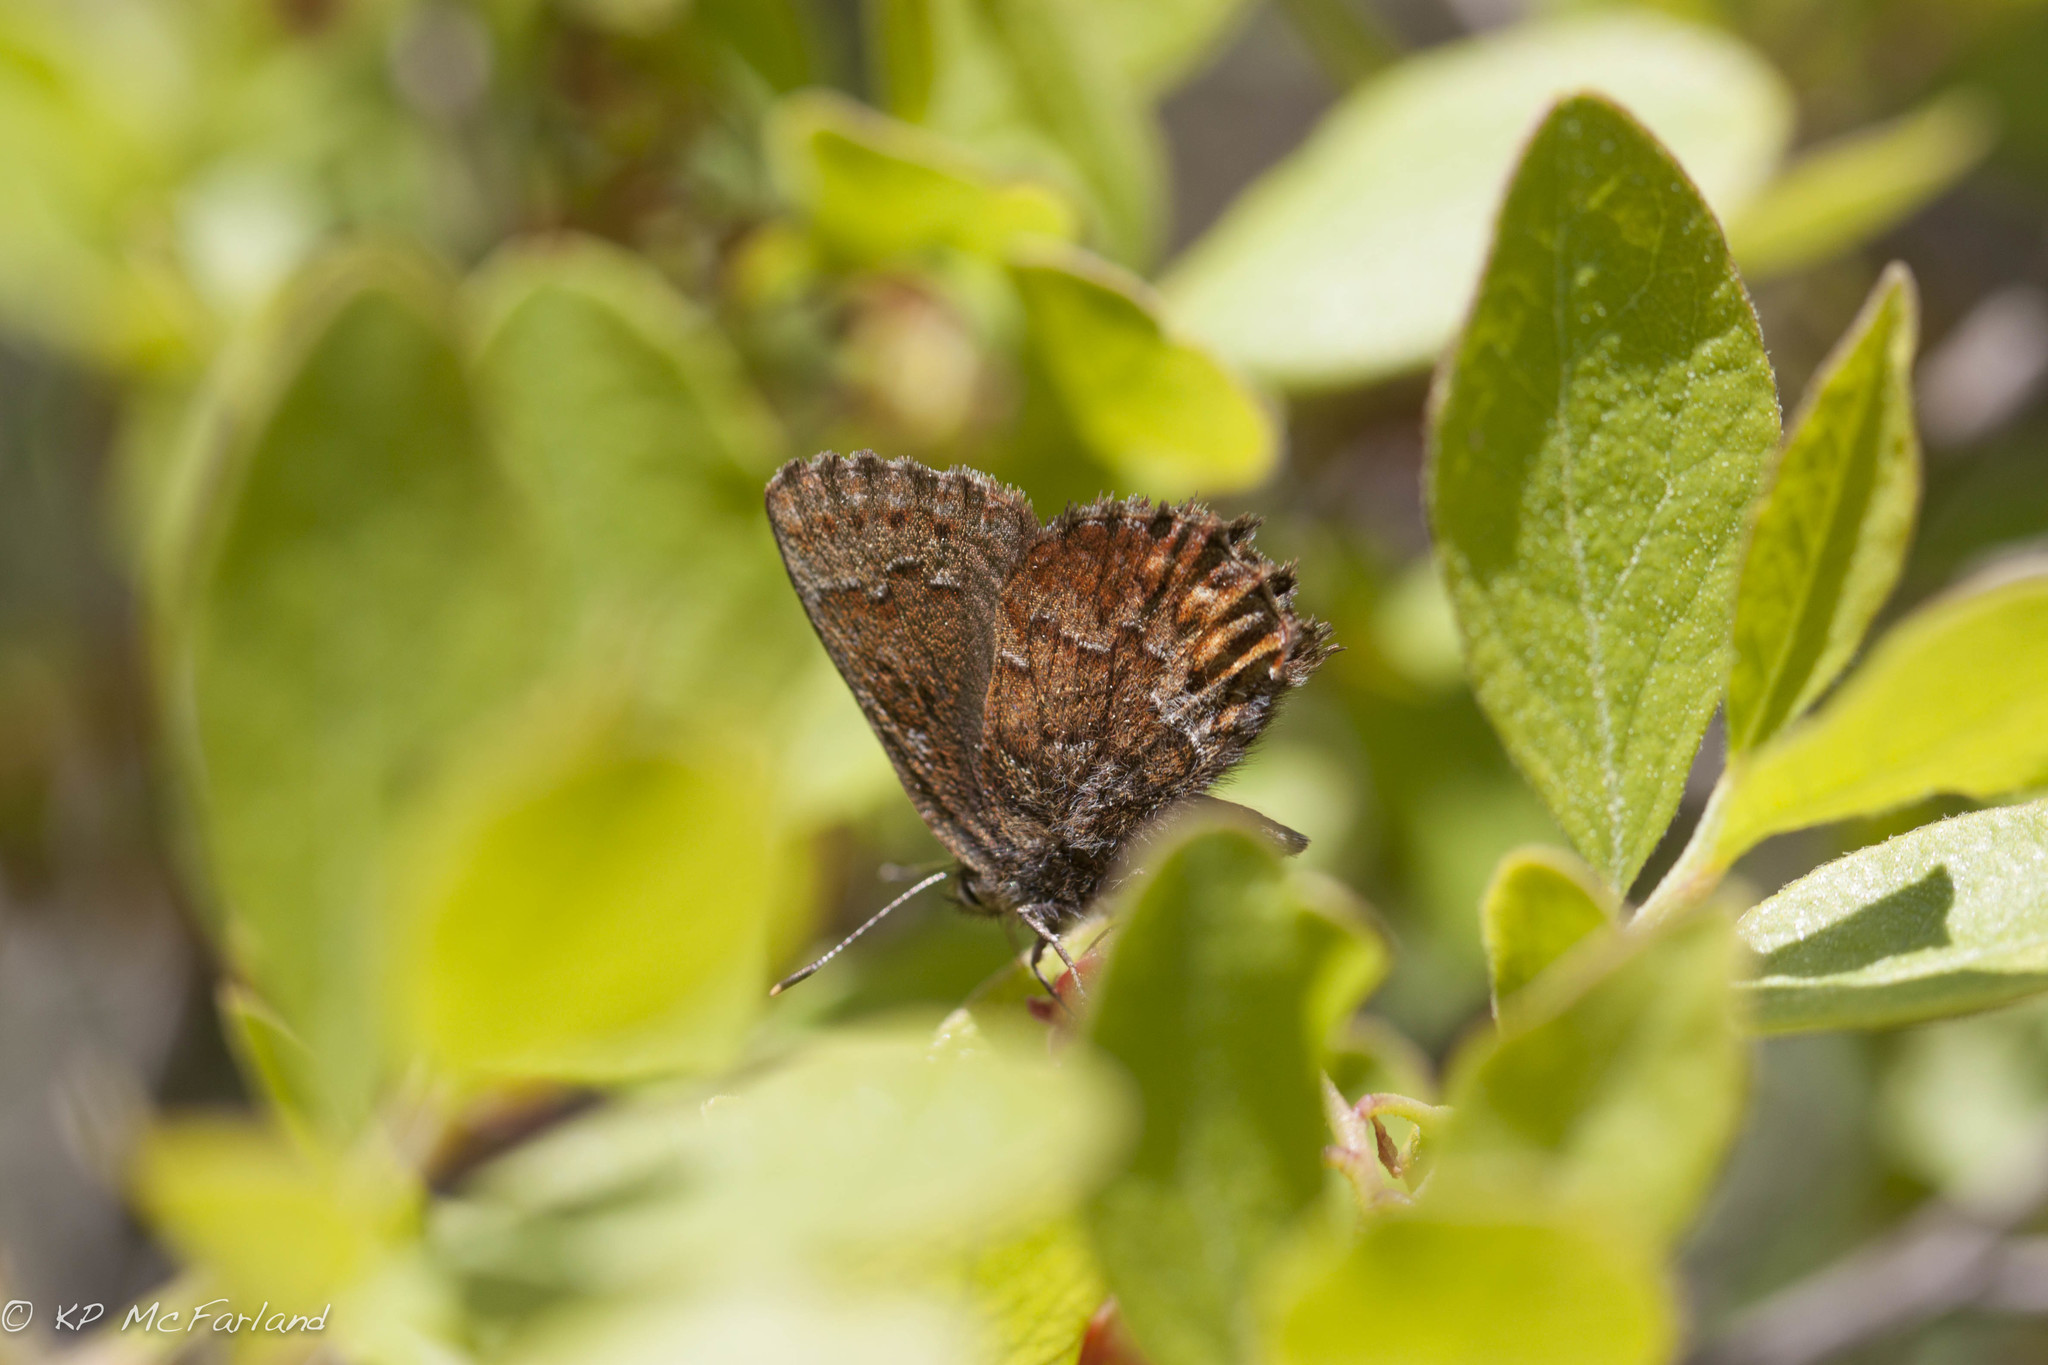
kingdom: Animalia
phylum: Arthropoda
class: Insecta
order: Lepidoptera
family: Lycaenidae
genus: Incisalia
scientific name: Incisalia niphon
